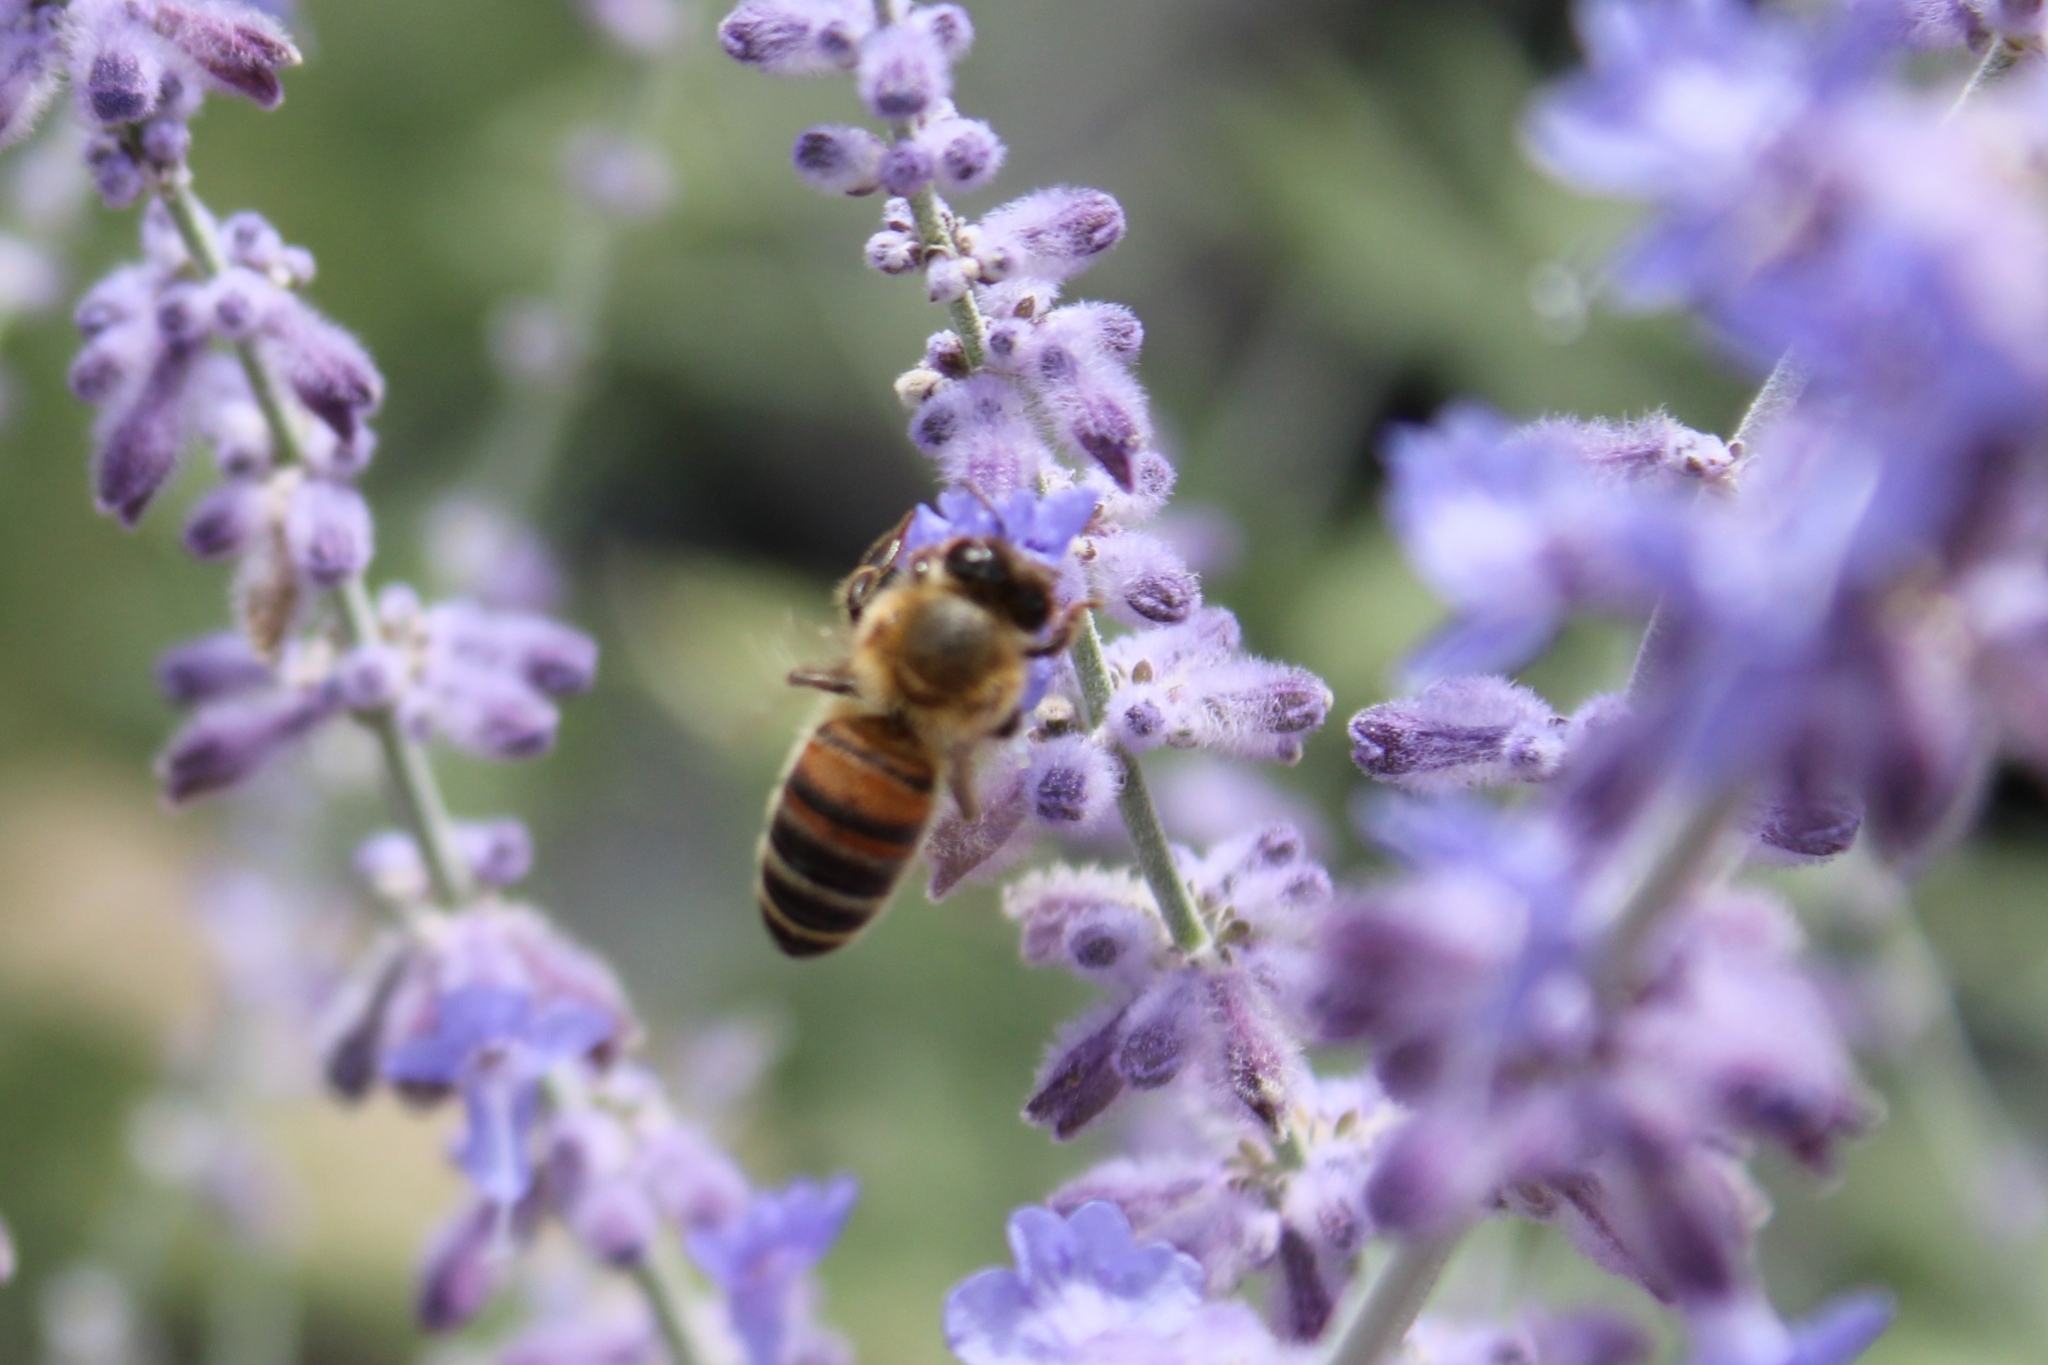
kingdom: Animalia
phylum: Arthropoda
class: Insecta
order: Hymenoptera
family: Apidae
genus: Apis
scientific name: Apis mellifera
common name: Honey bee
